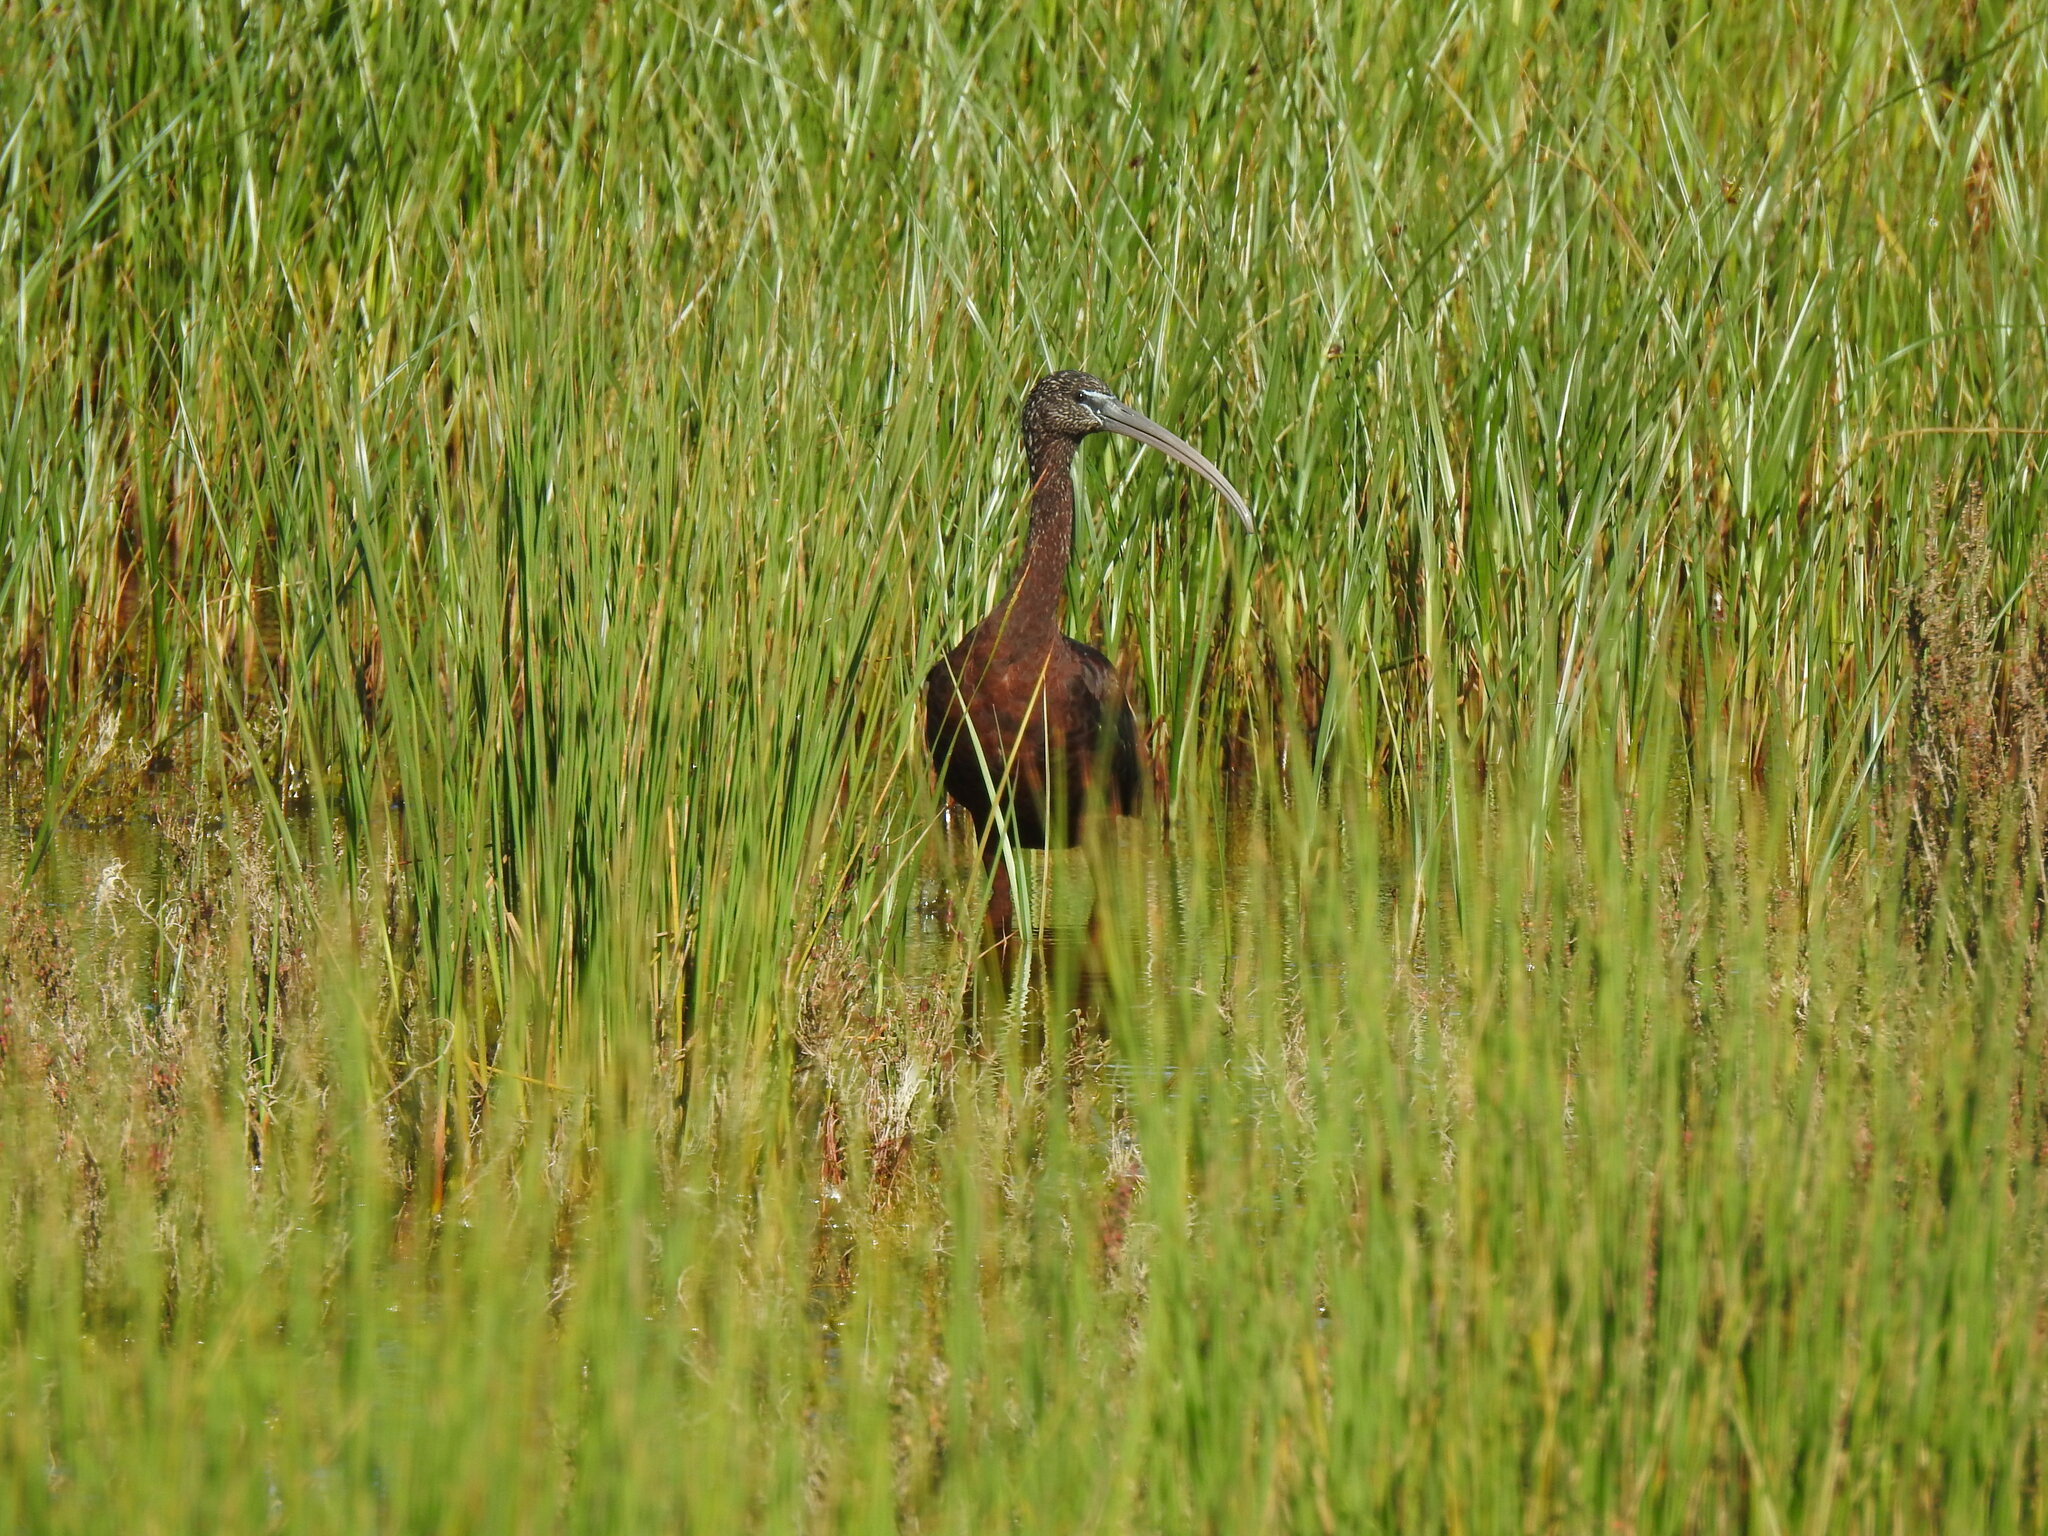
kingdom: Animalia
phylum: Chordata
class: Aves
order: Pelecaniformes
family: Threskiornithidae
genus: Plegadis
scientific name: Plegadis falcinellus
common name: Glossy ibis
